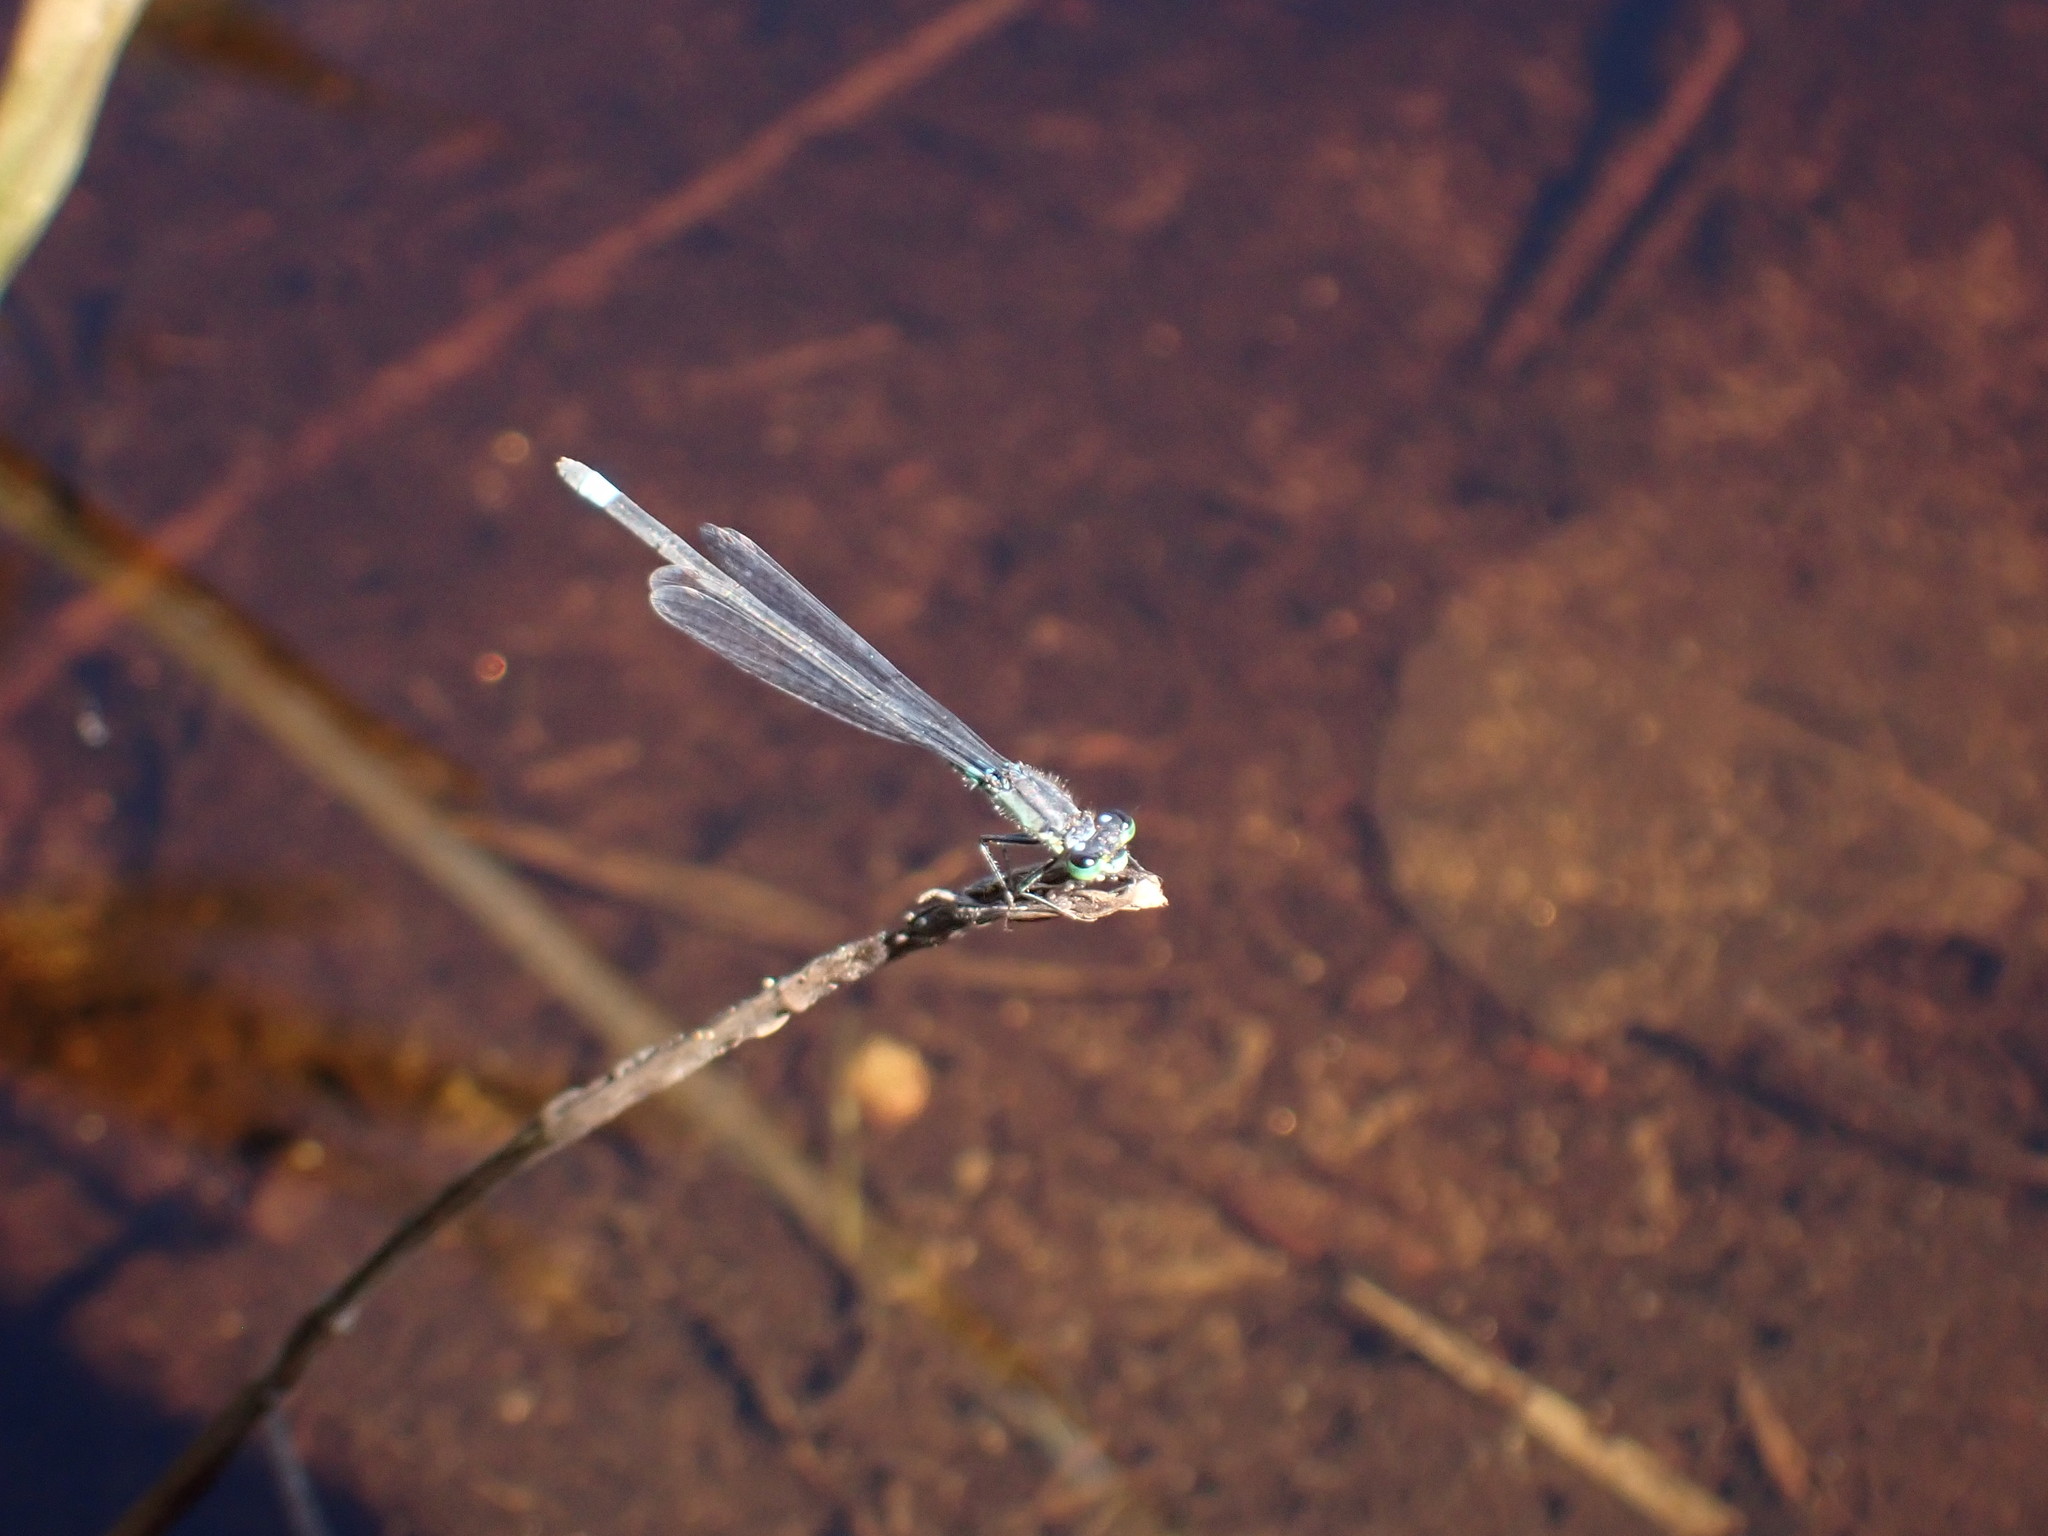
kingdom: Animalia
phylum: Arthropoda
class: Insecta
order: Odonata
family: Coenagrionidae
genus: Ischnura
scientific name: Ischnura cervula
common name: Pacific forktail
